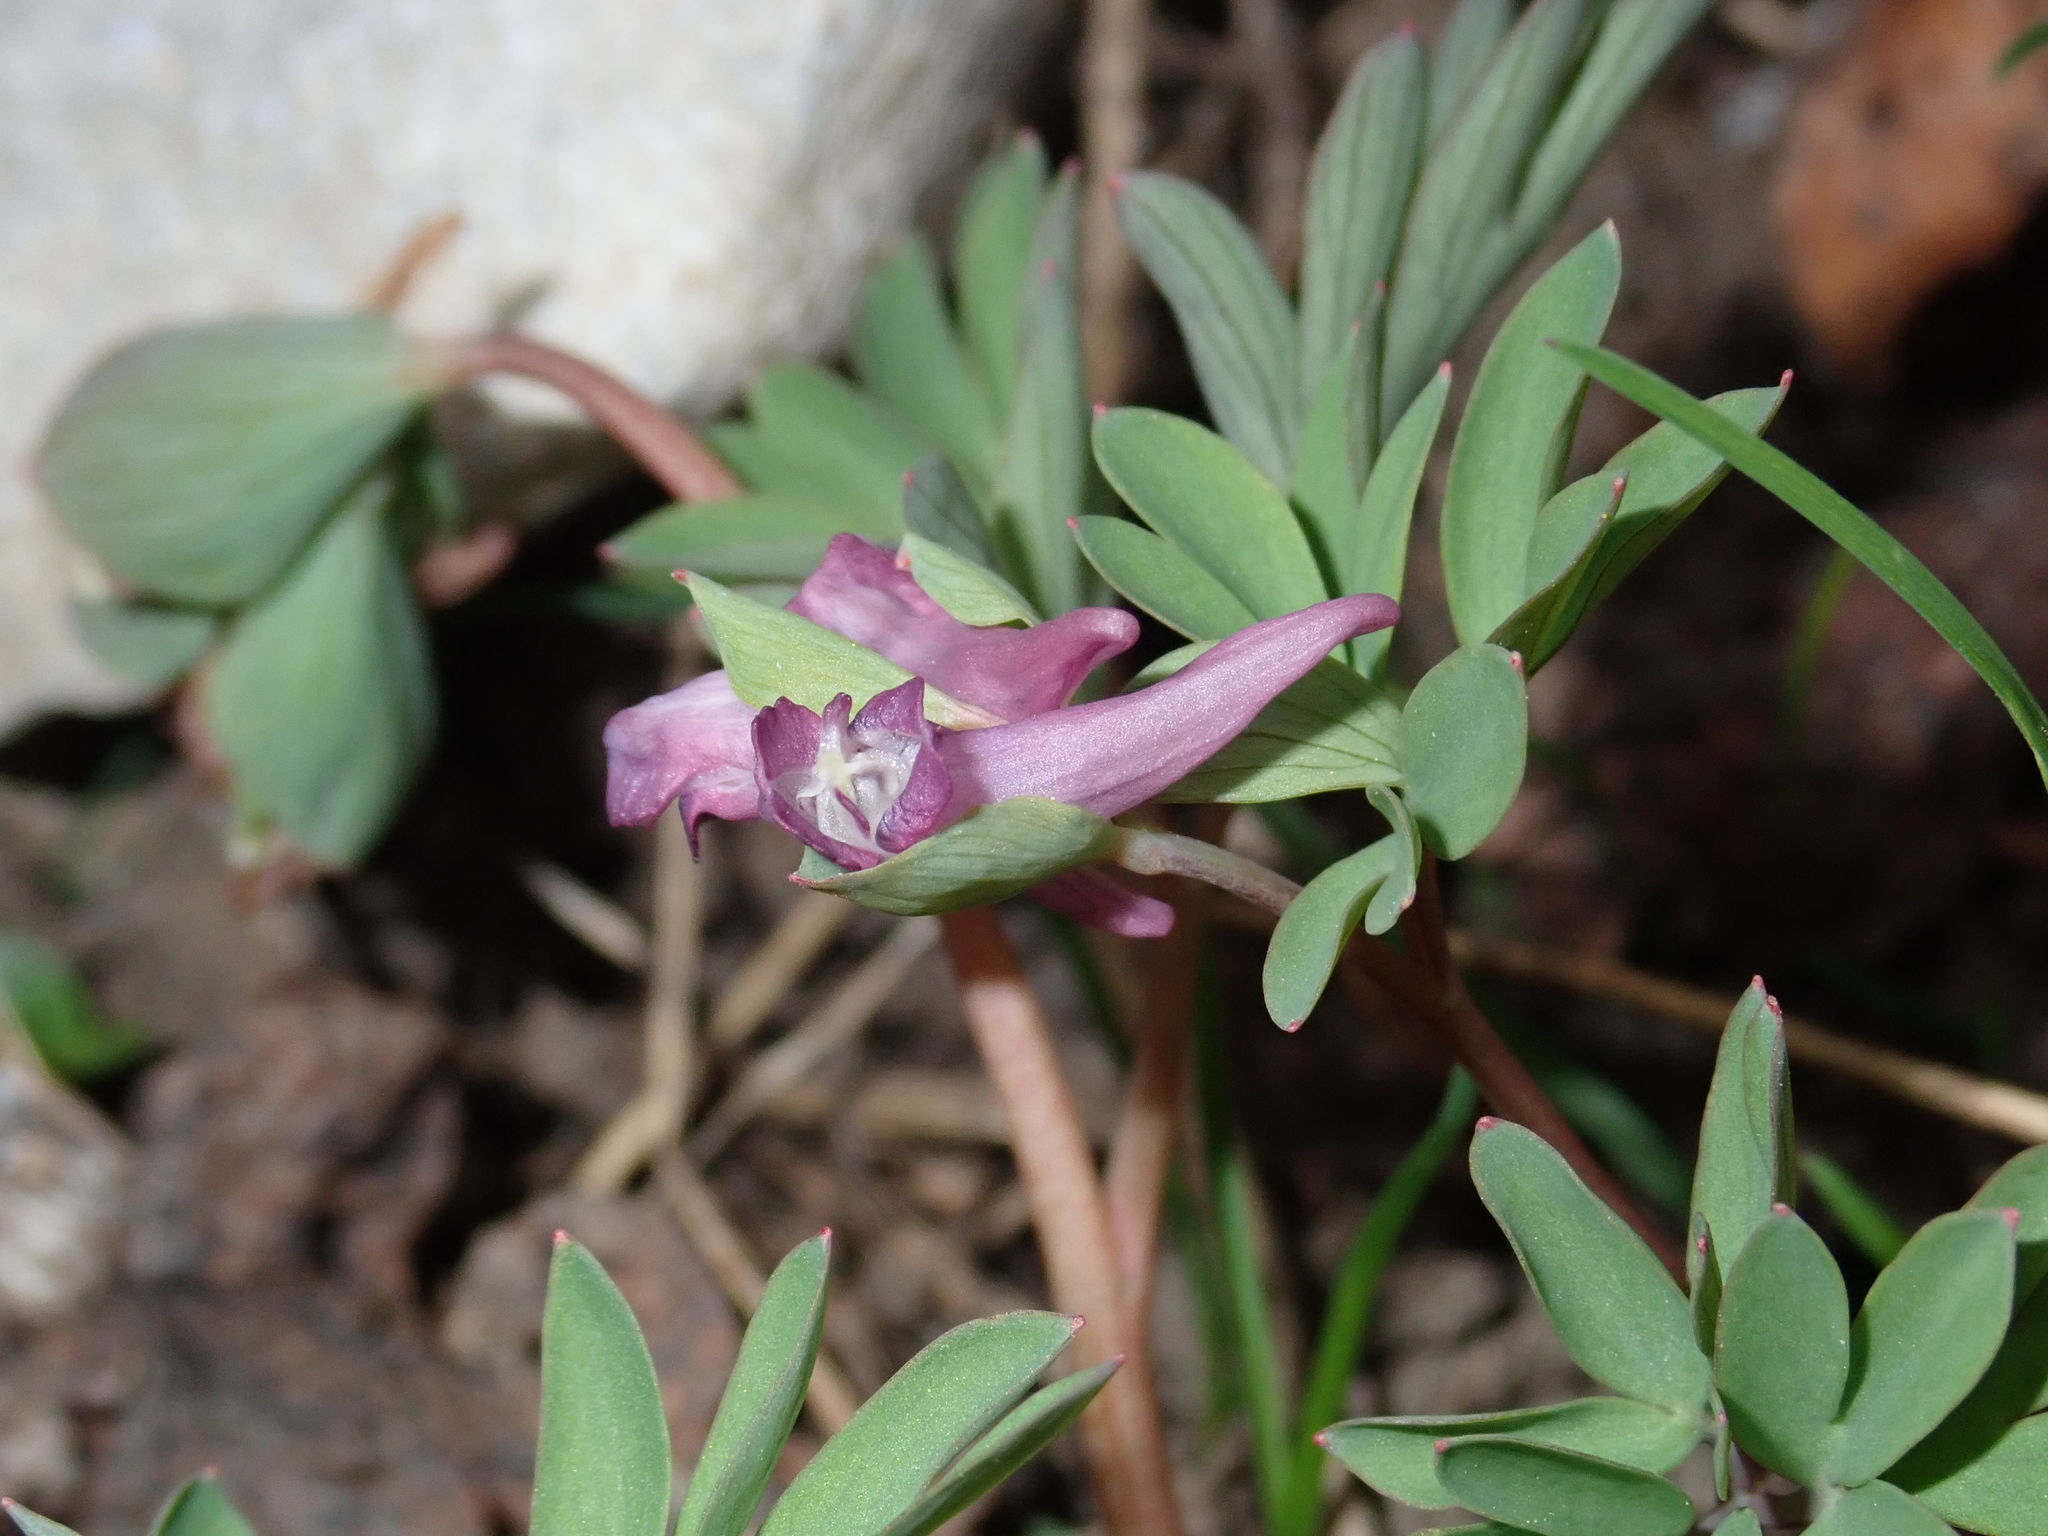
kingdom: Plantae
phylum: Tracheophyta
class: Magnoliopsida
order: Ranunculales
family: Papaveraceae
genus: Corydalis
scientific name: Corydalis intermedia
